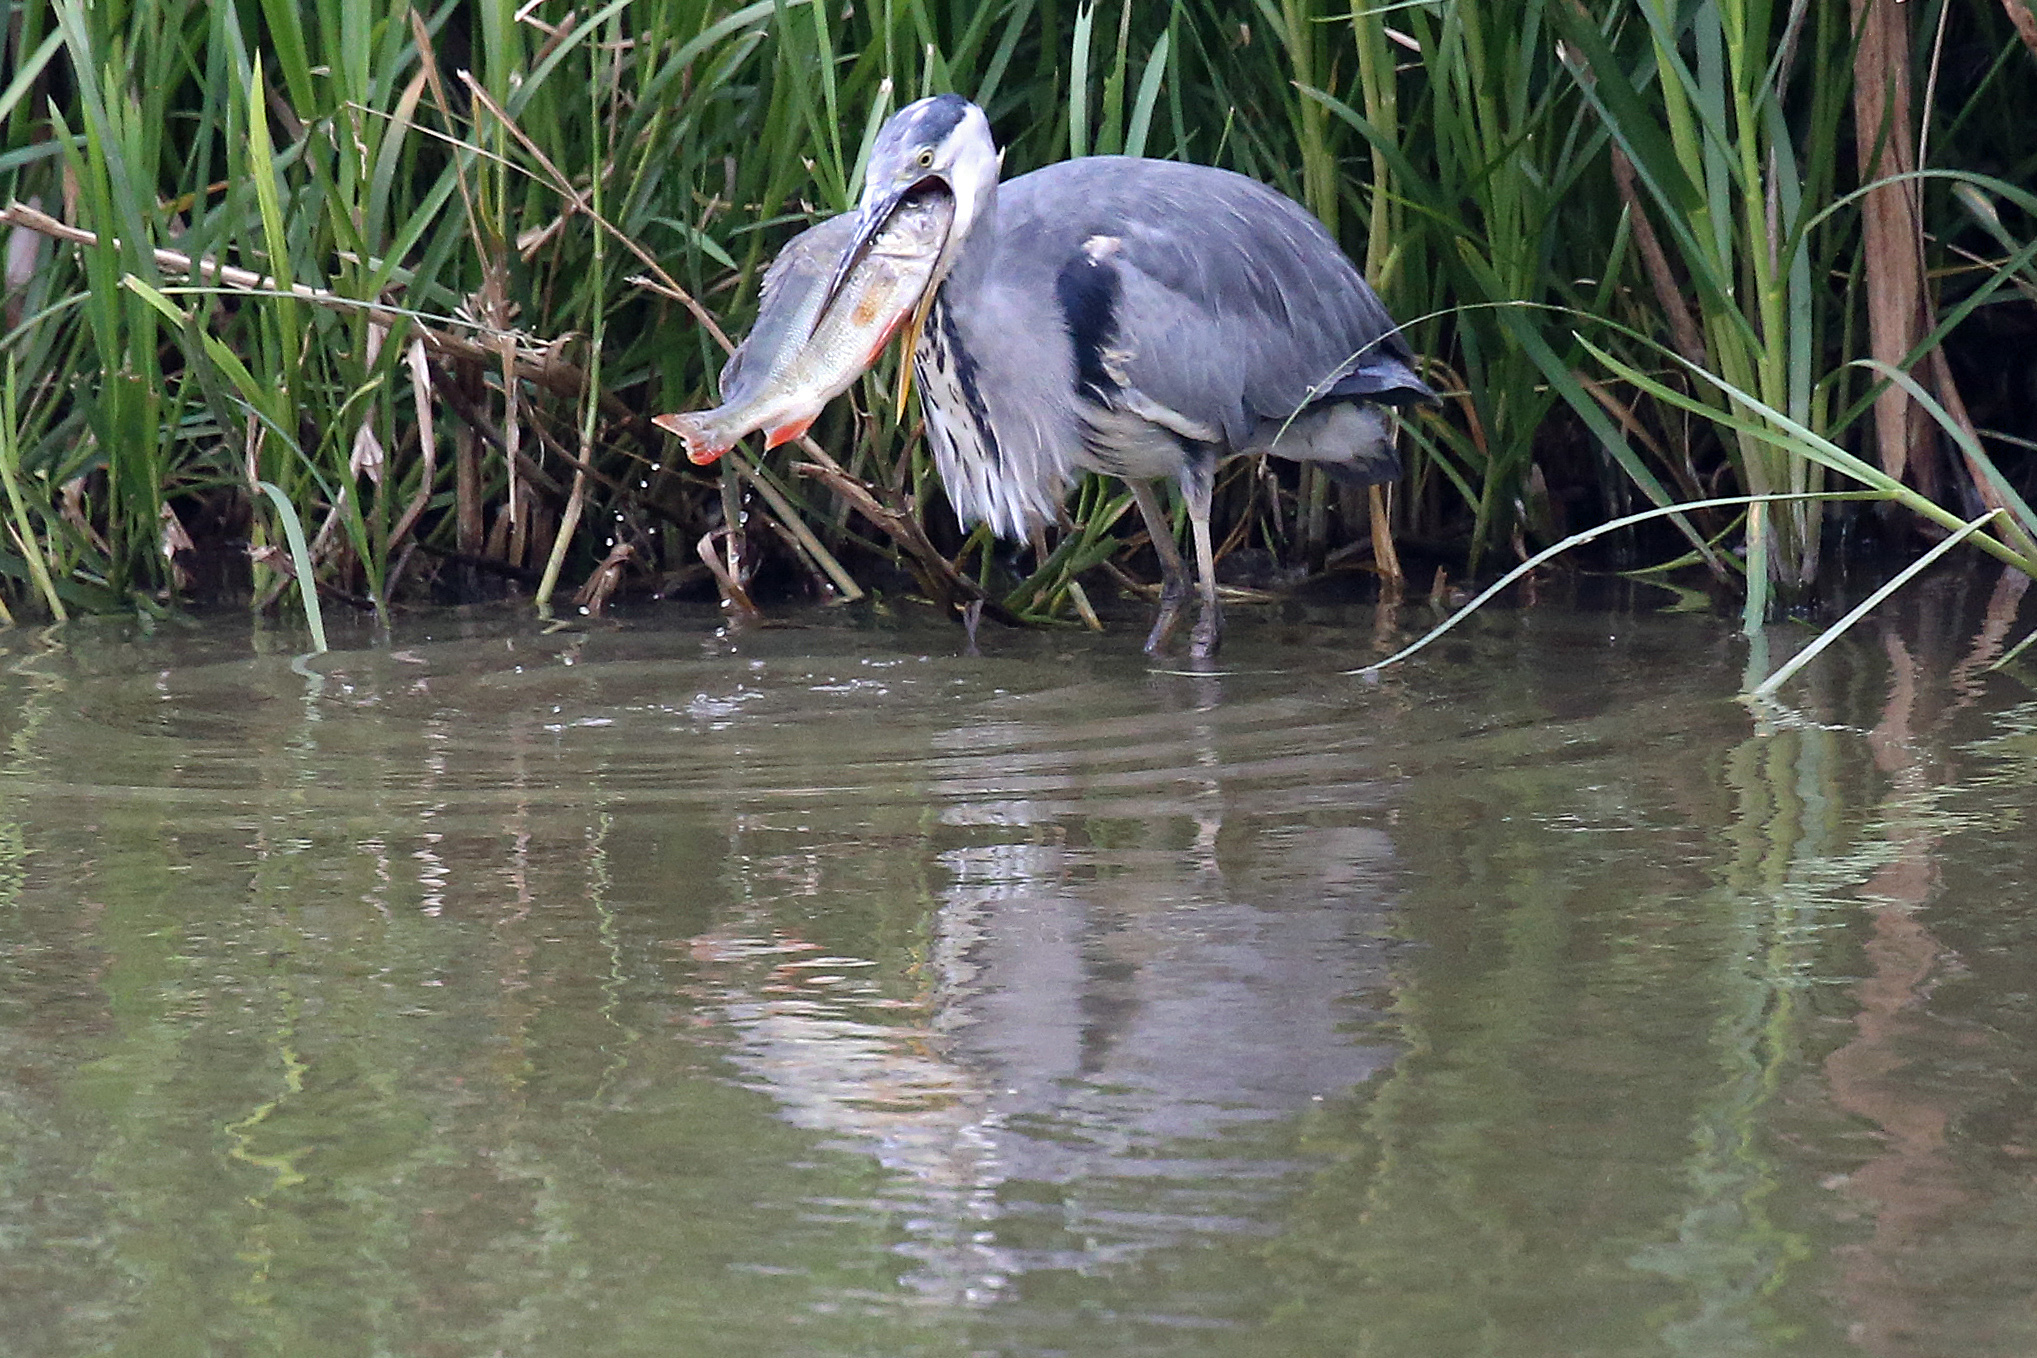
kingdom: Animalia
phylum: Chordata
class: Aves
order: Pelecaniformes
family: Ardeidae
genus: Ardea
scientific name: Ardea cinerea
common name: Grey heron
